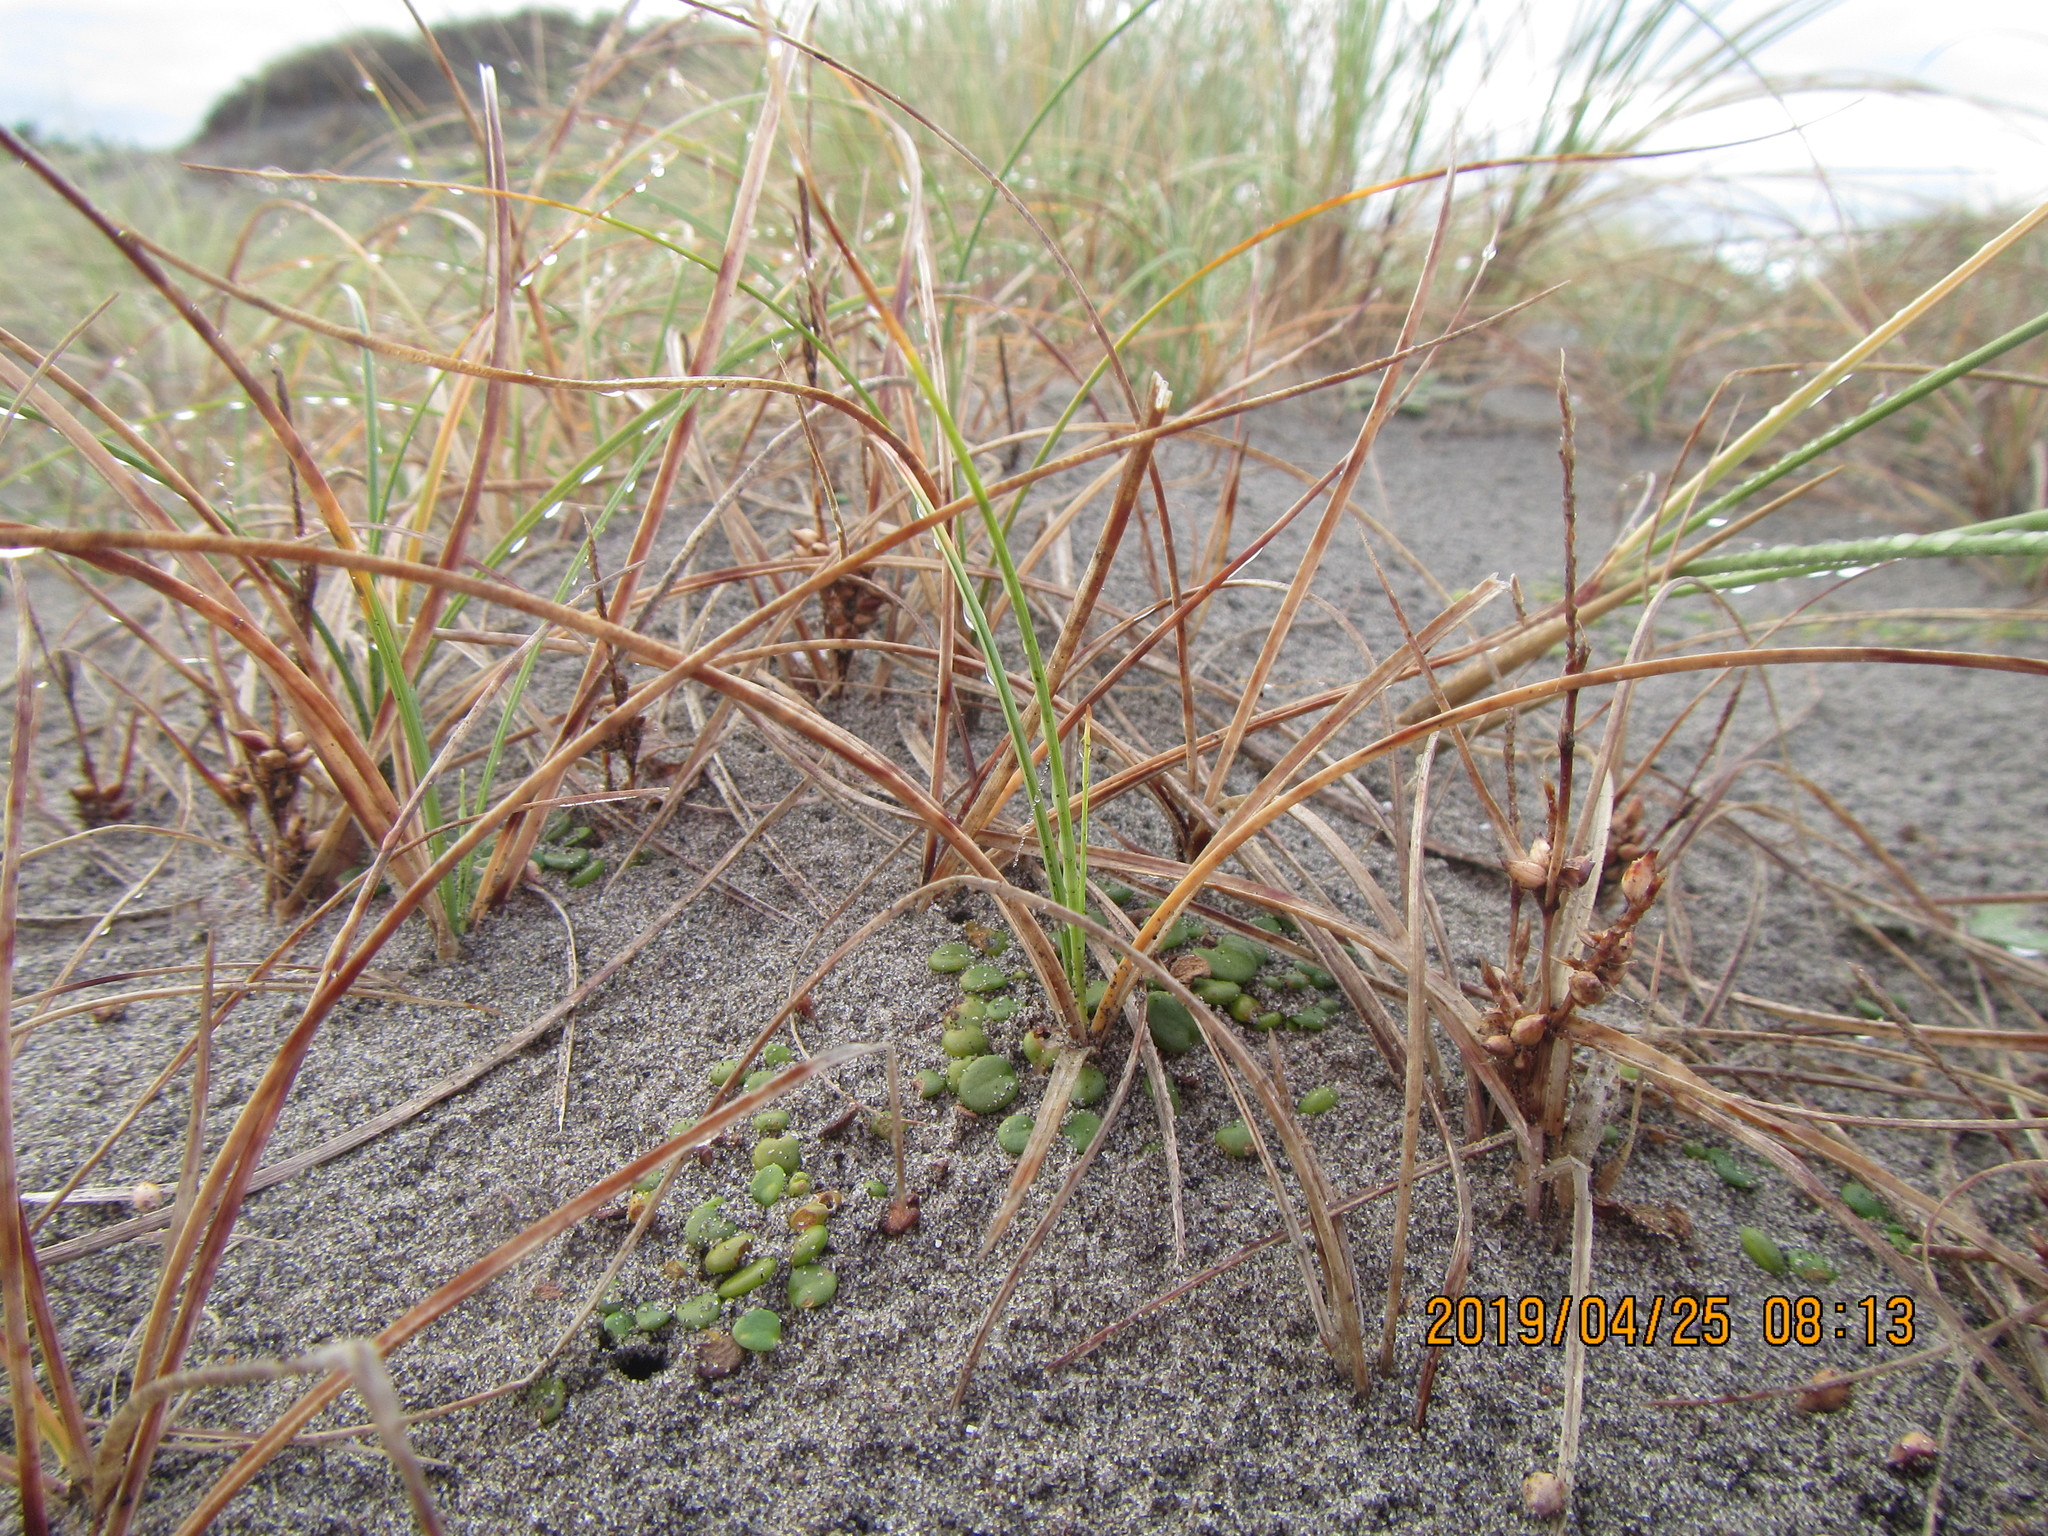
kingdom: Plantae
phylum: Tracheophyta
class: Liliopsida
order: Poales
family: Cyperaceae
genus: Carex
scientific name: Carex pumila
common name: Dwarf sedge
